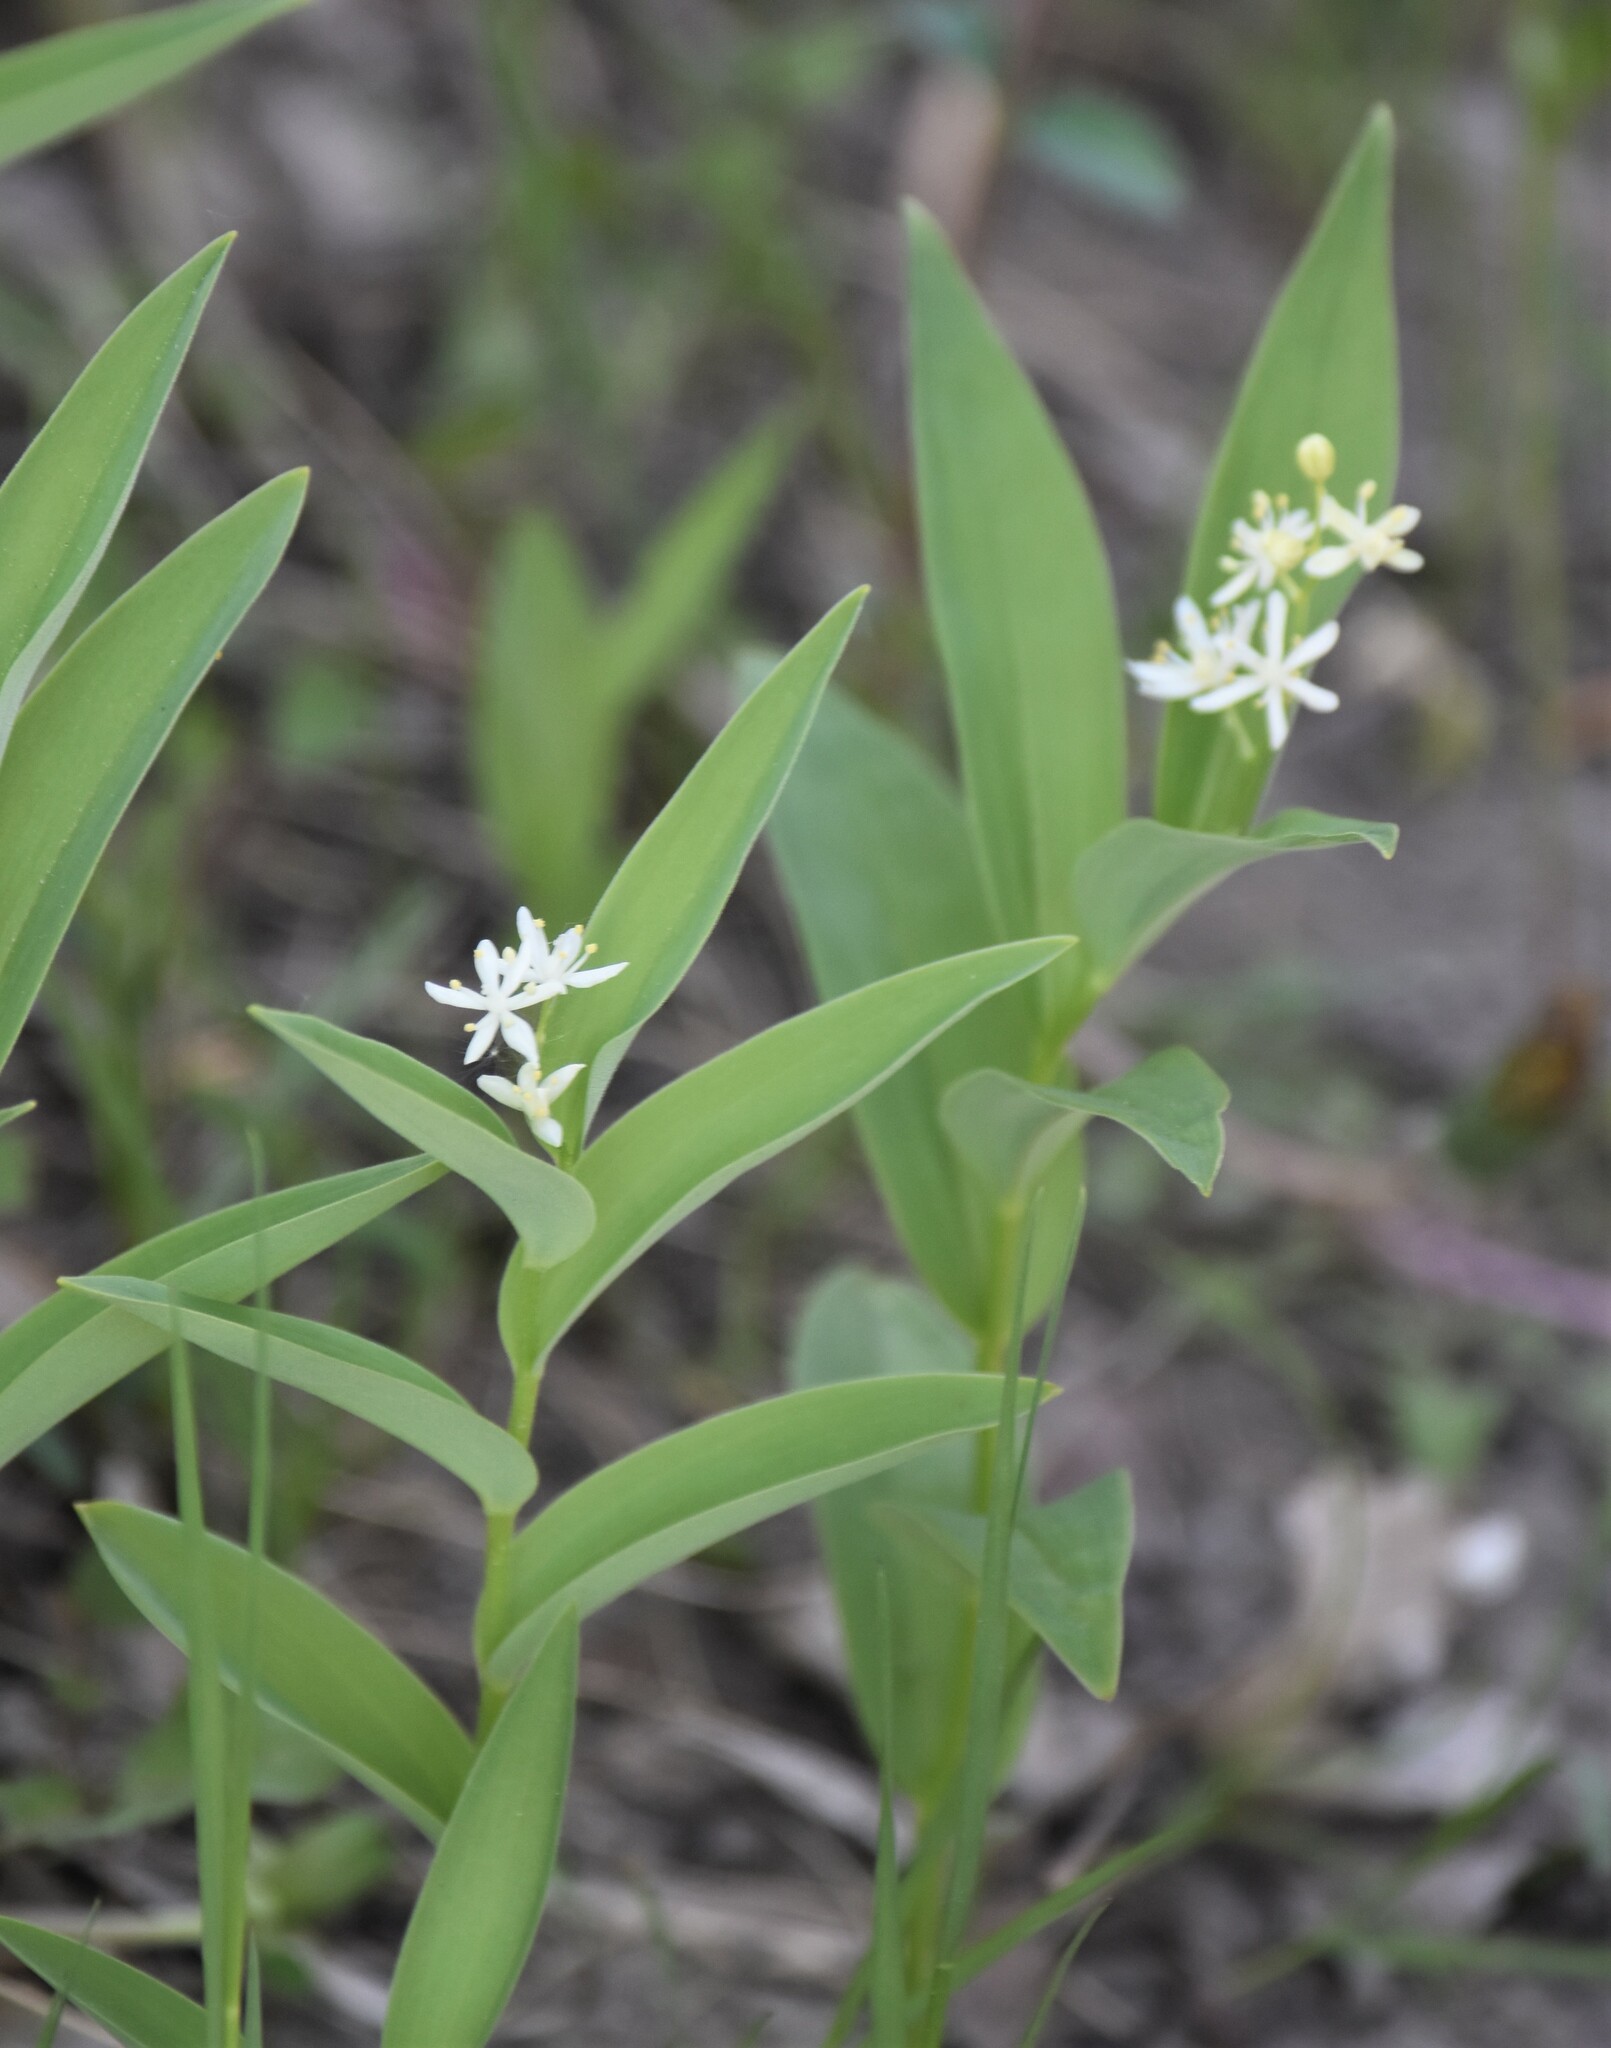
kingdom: Plantae
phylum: Tracheophyta
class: Liliopsida
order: Asparagales
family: Asparagaceae
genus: Maianthemum
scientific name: Maianthemum stellatum
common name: Little false solomon's seal
